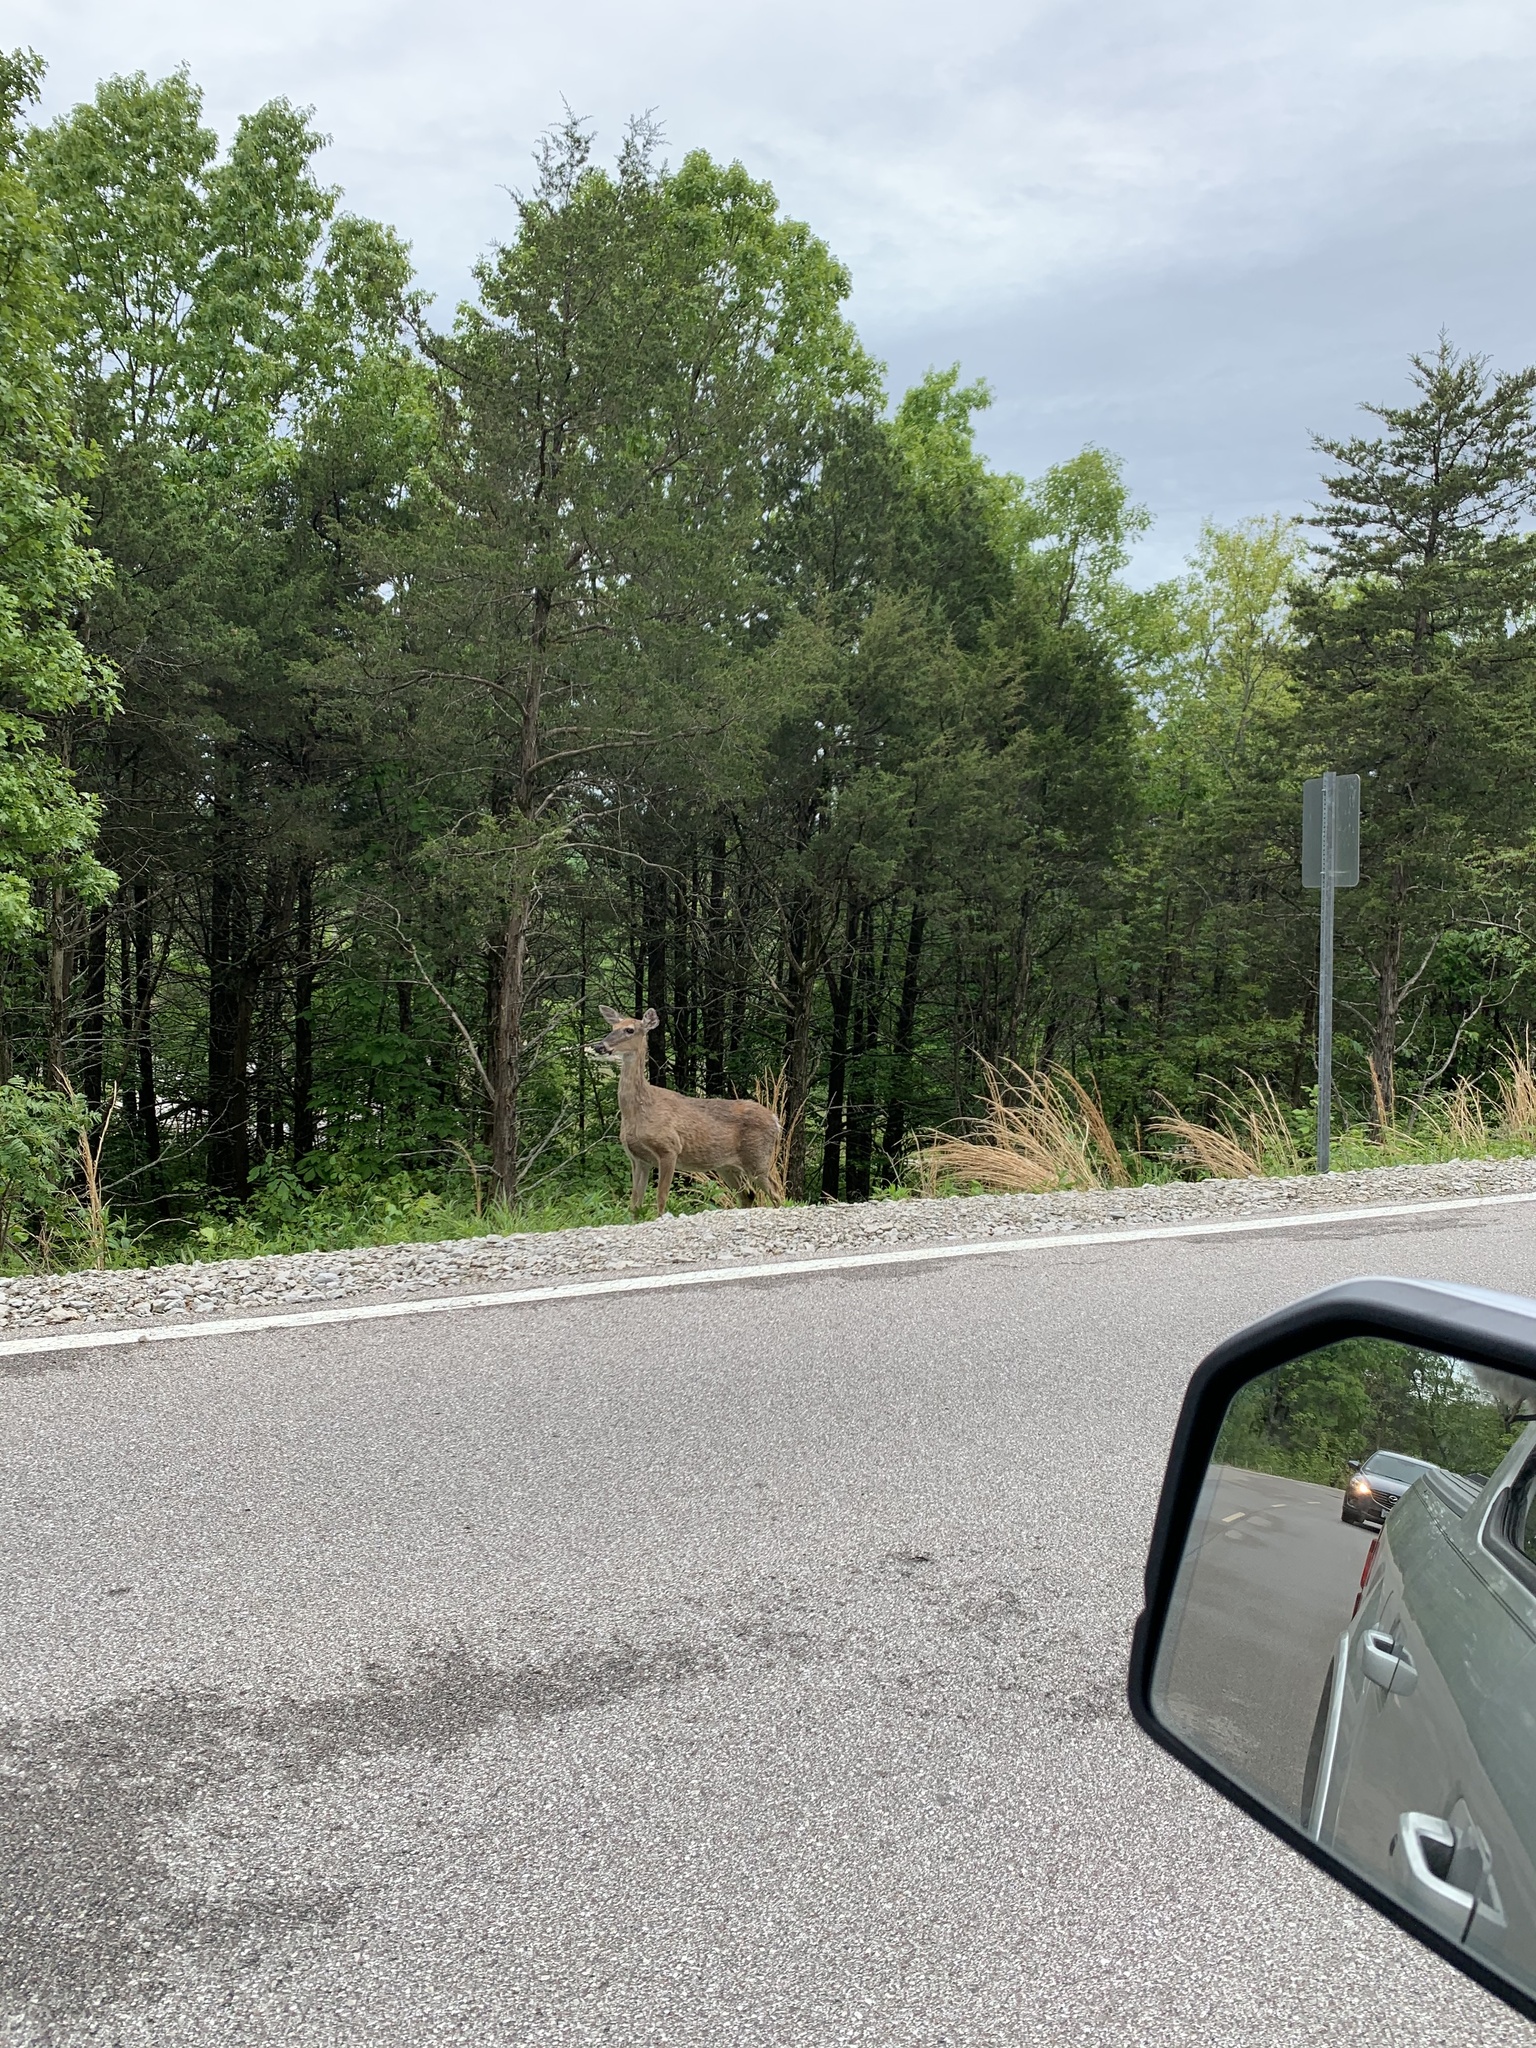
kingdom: Animalia
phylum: Chordata
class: Mammalia
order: Artiodactyla
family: Cervidae
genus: Odocoileus
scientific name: Odocoileus virginianus
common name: White-tailed deer
